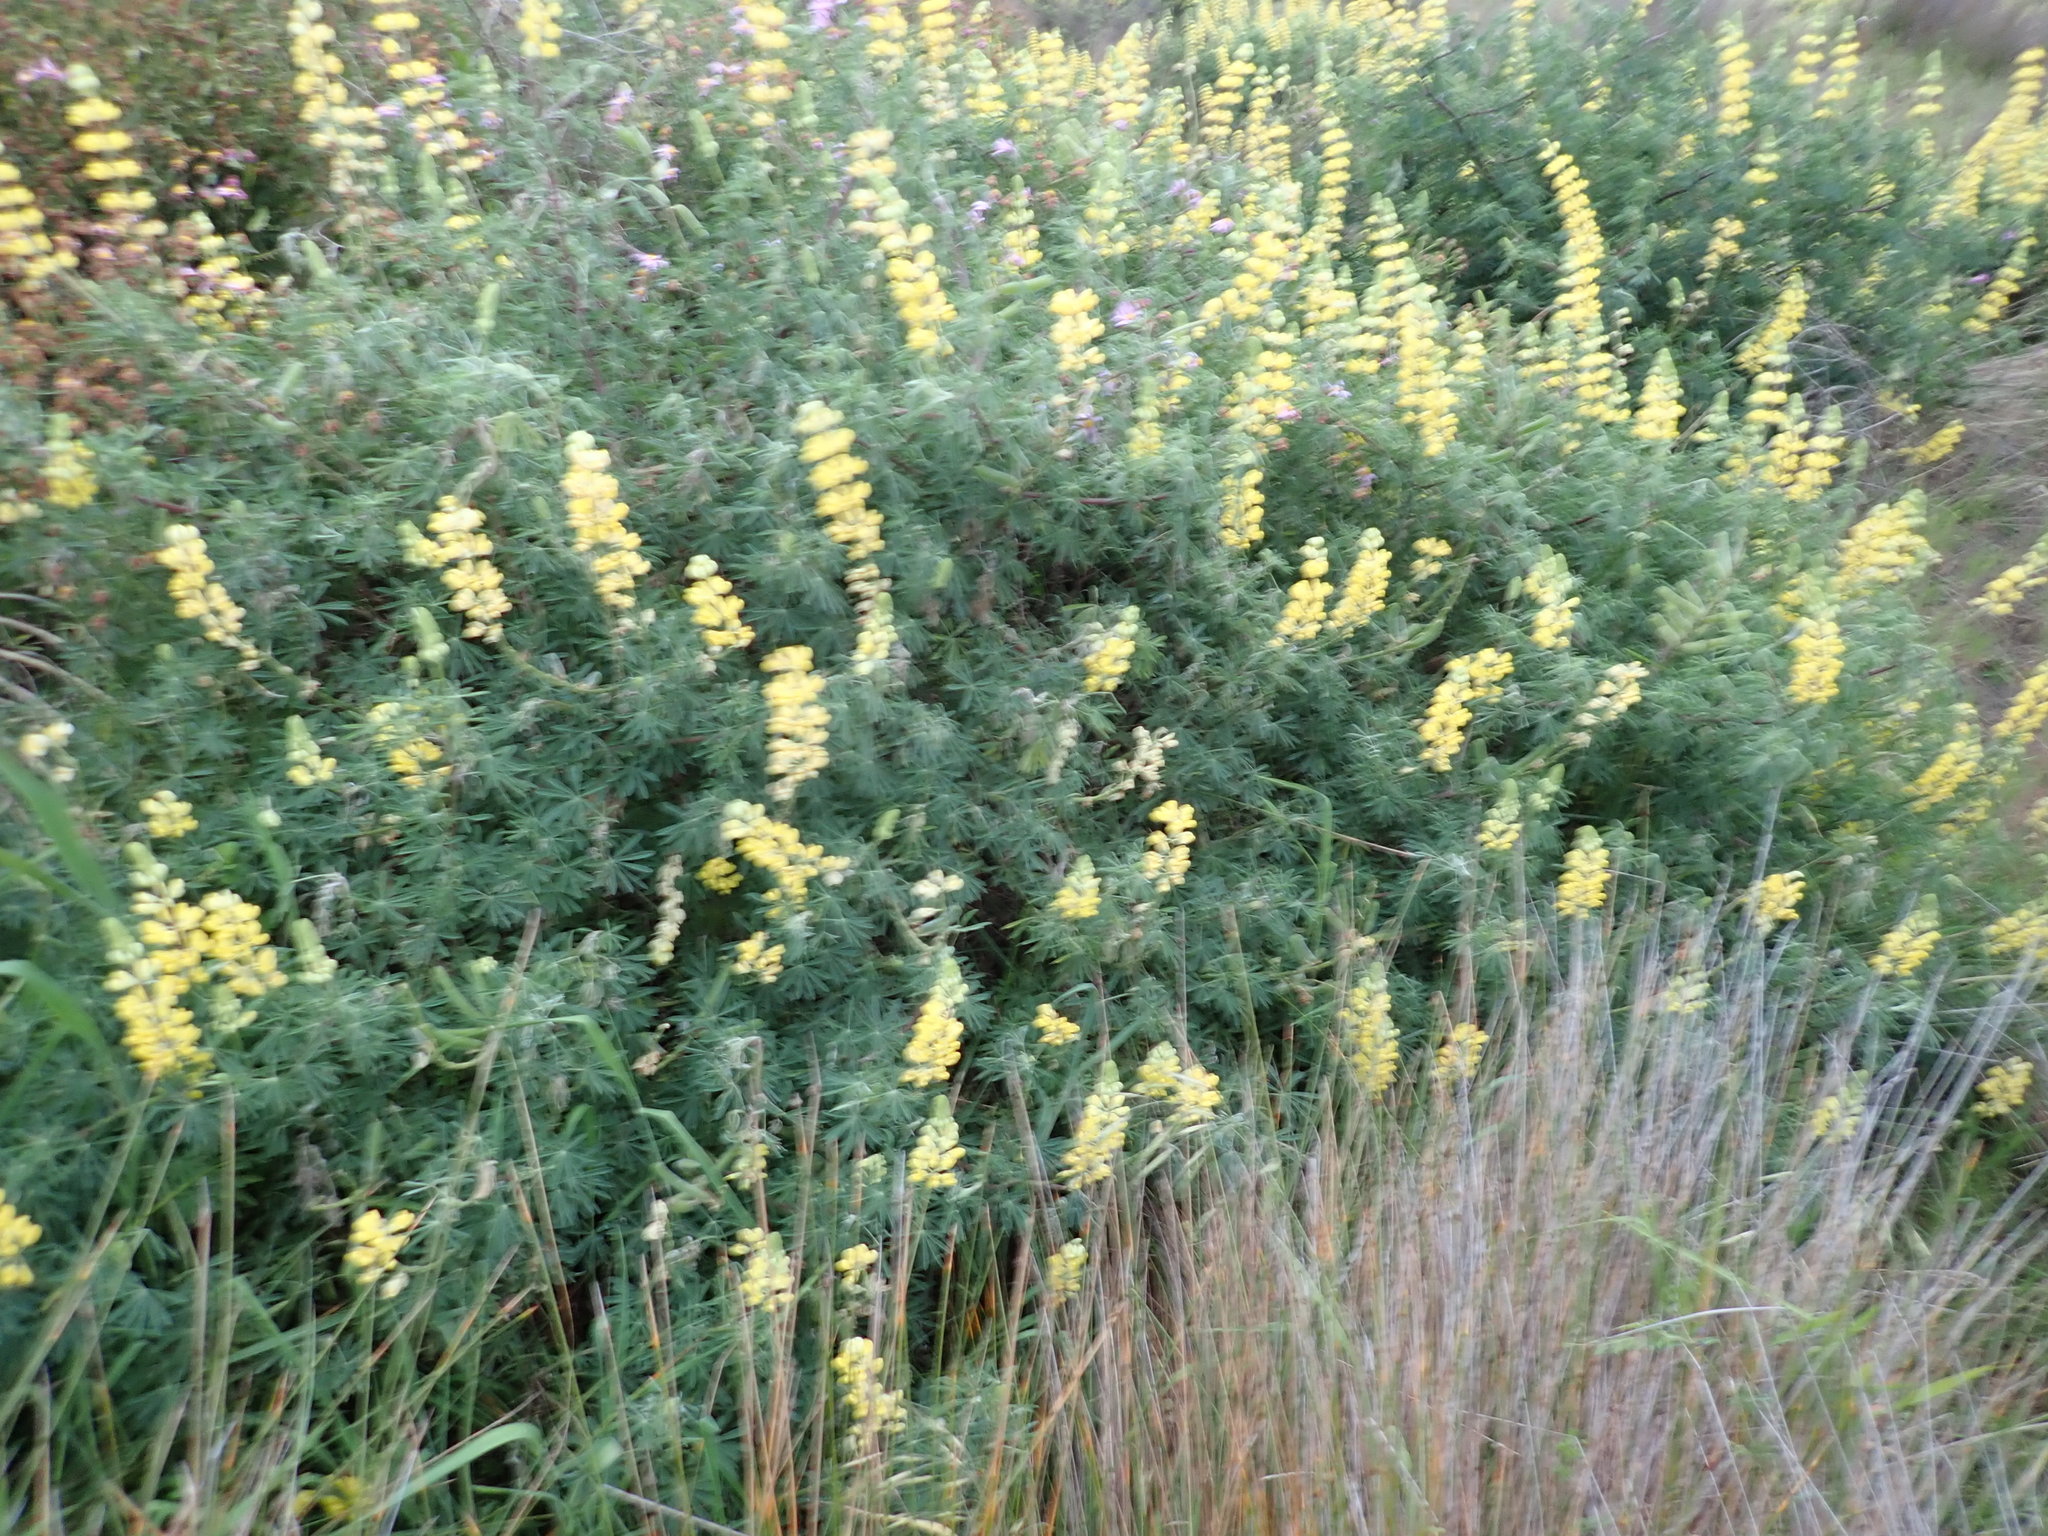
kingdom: Plantae
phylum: Tracheophyta
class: Magnoliopsida
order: Fabales
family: Fabaceae
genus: Lupinus
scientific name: Lupinus arboreus
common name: Yellow bush lupine
